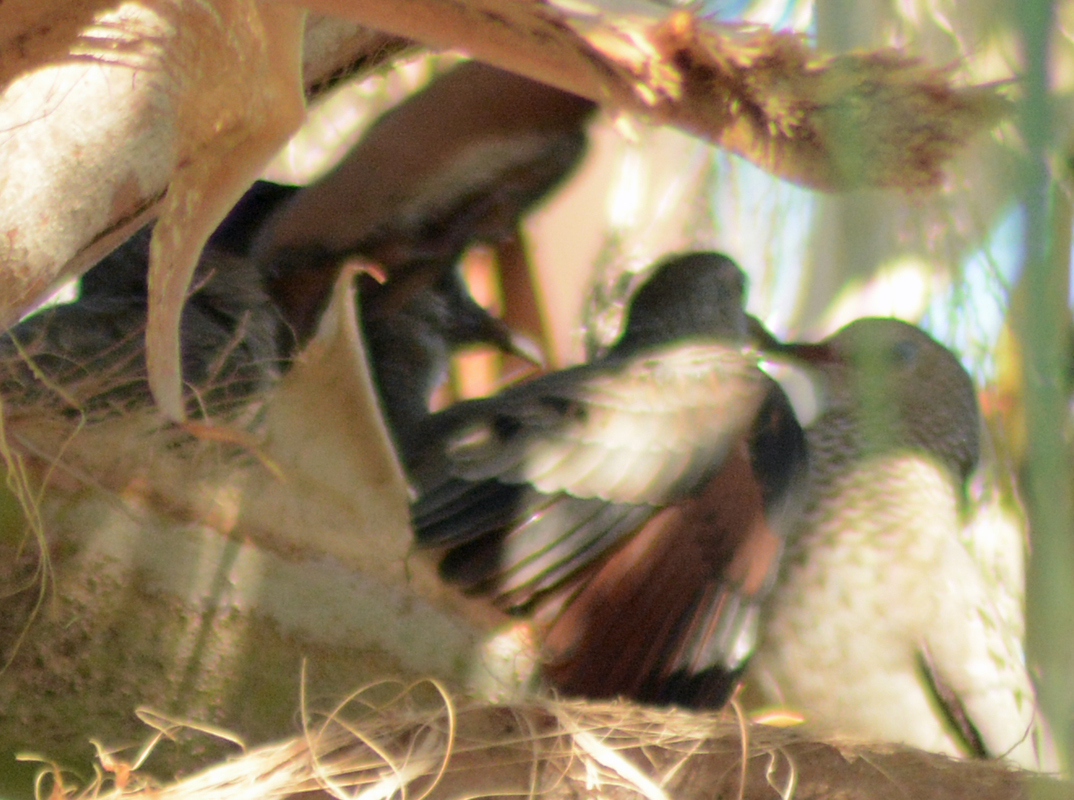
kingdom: Animalia
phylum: Chordata
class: Aves
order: Columbiformes
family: Columbidae
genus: Columbina
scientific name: Columbina passerina
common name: Common ground-dove
